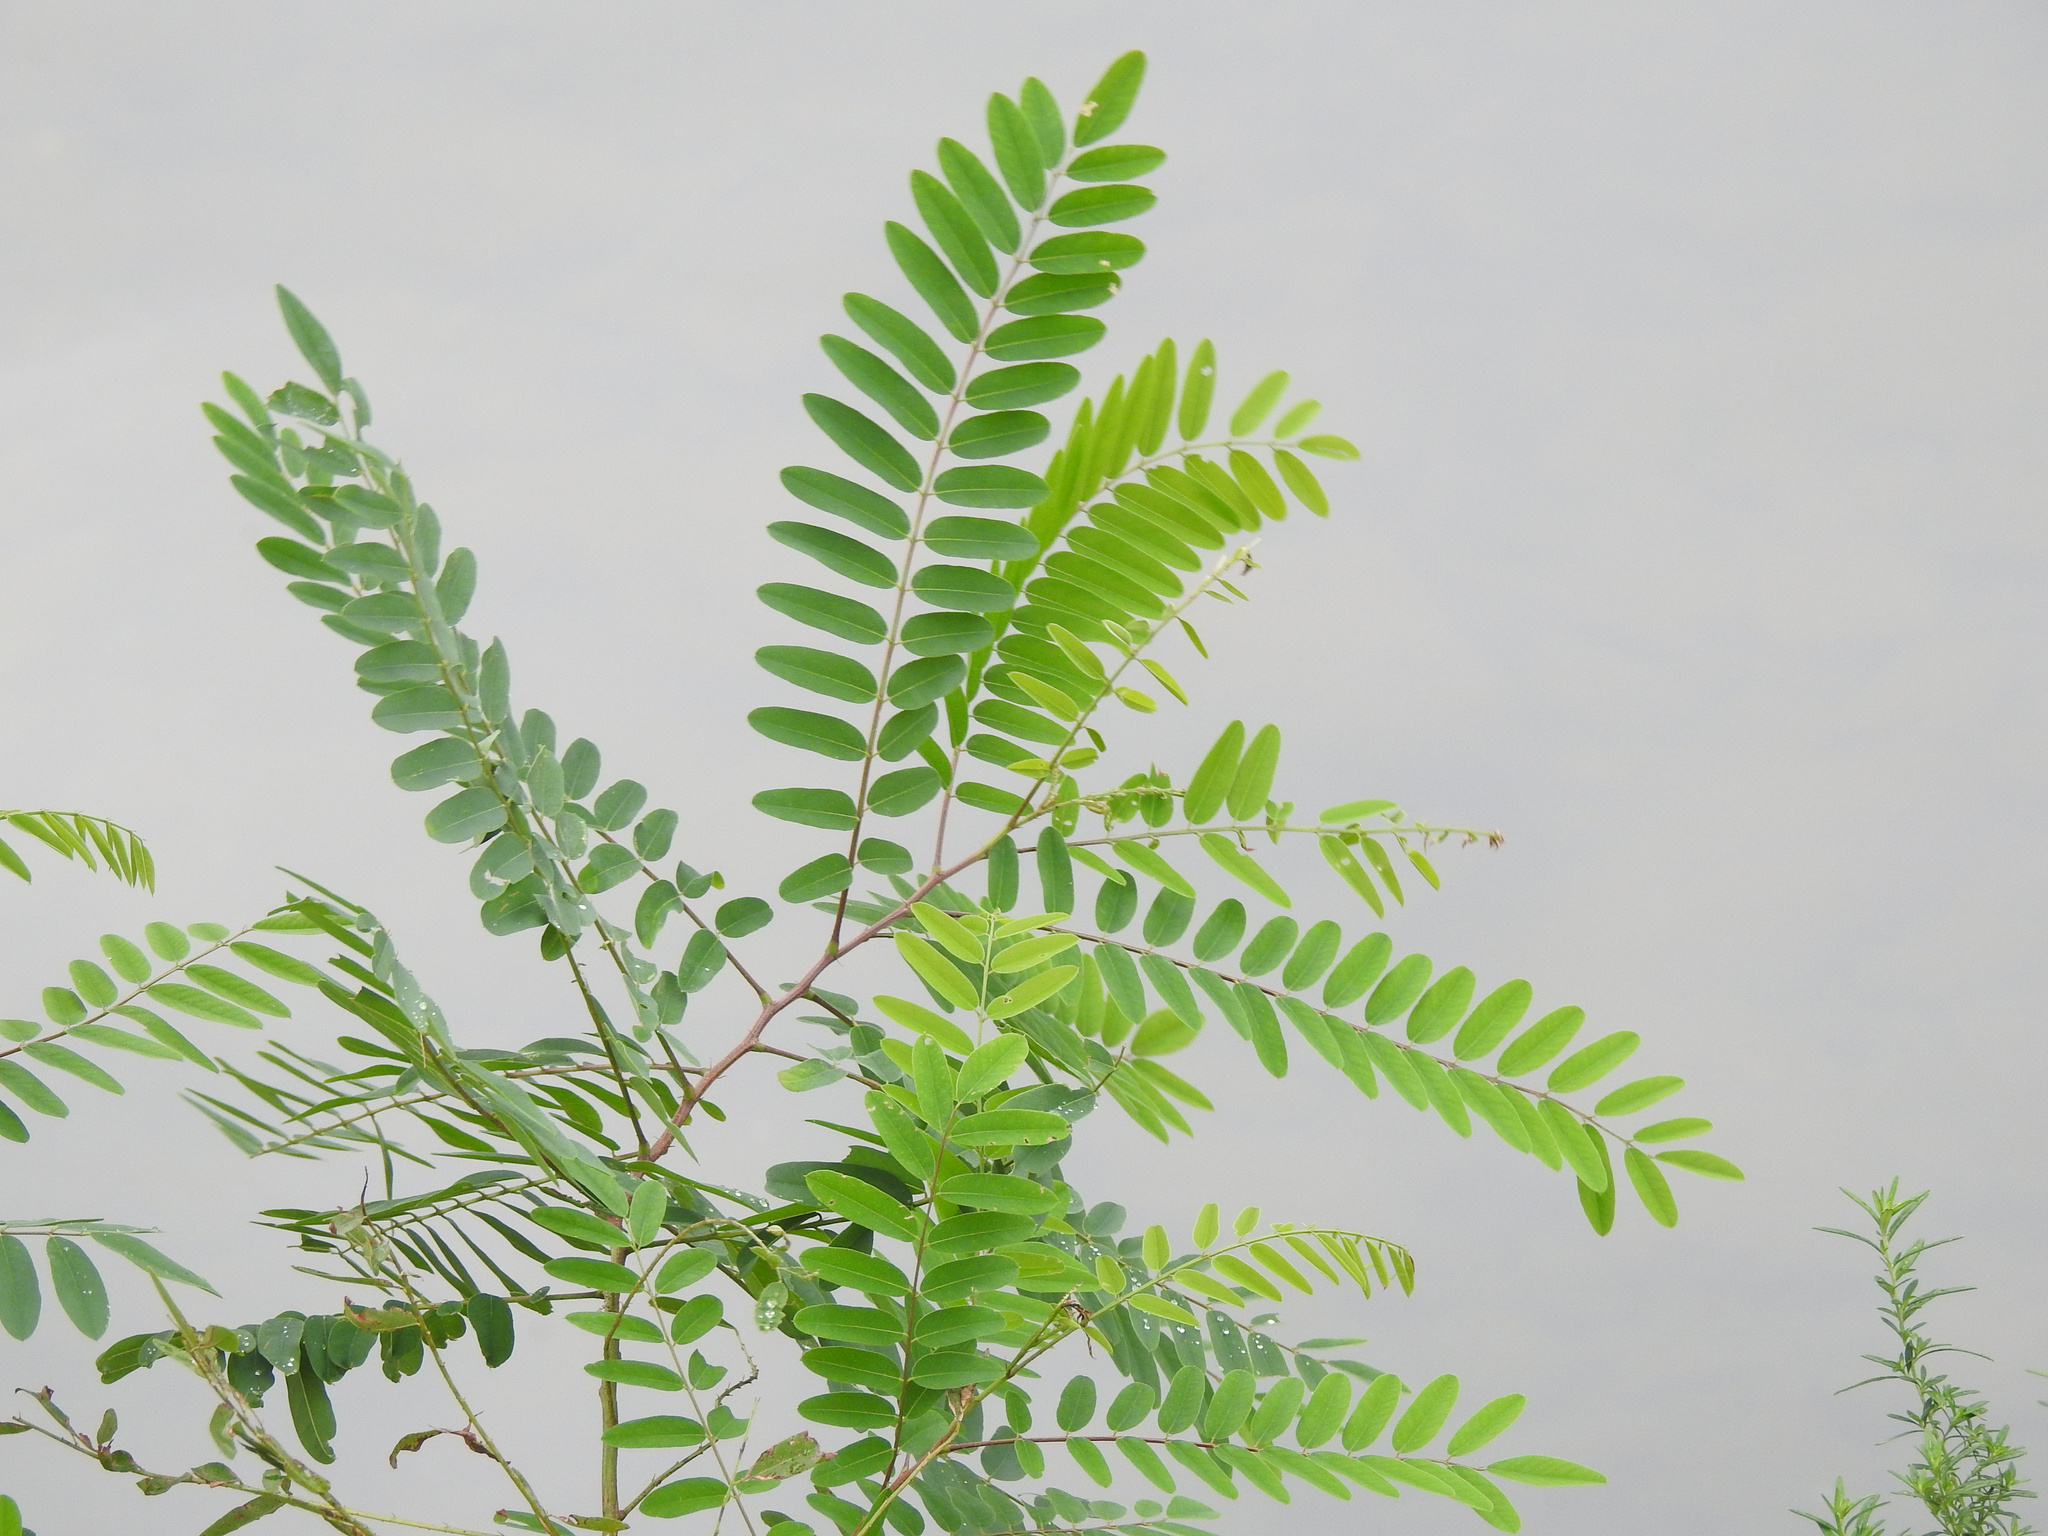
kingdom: Plantae
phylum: Tracheophyta
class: Magnoliopsida
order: Fabales
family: Fabaceae
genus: Amorpha
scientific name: Amorpha fruticosa
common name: False indigo
